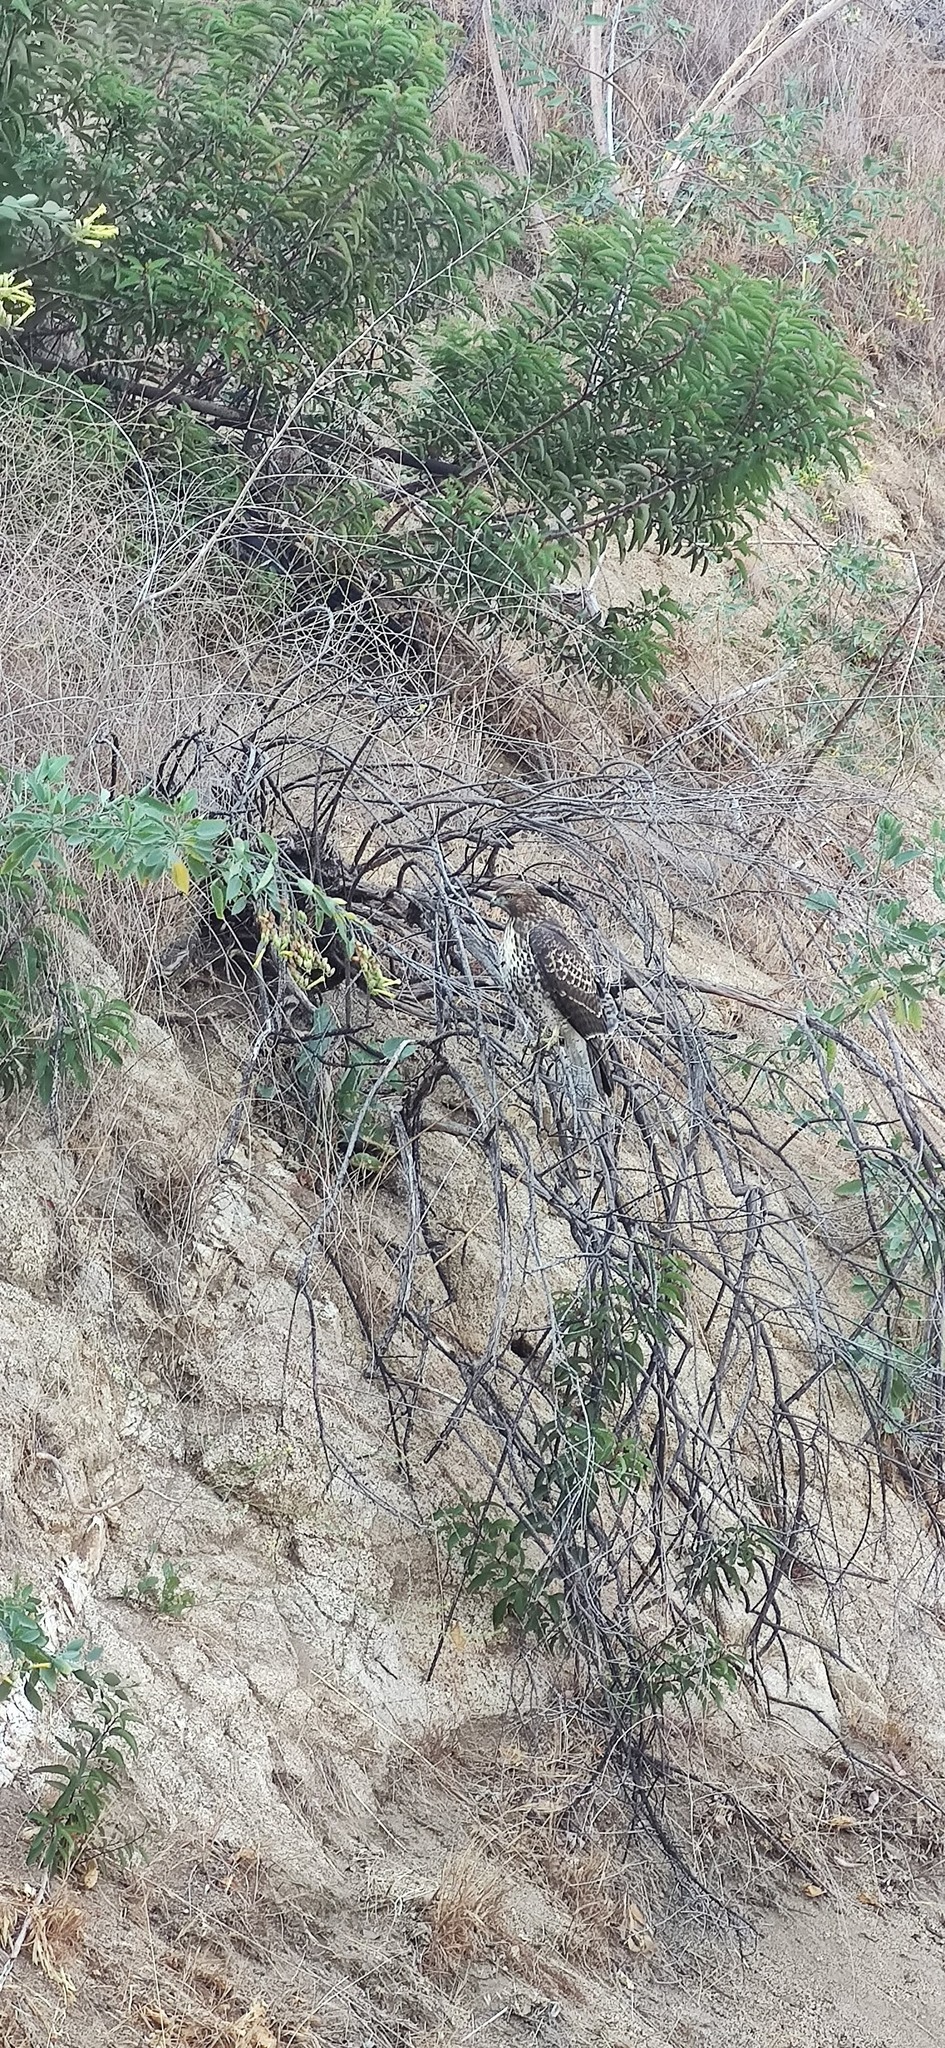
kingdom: Animalia
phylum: Chordata
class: Aves
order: Accipitriformes
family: Accipitridae
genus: Buteo
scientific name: Buteo jamaicensis
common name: Red-tailed hawk
